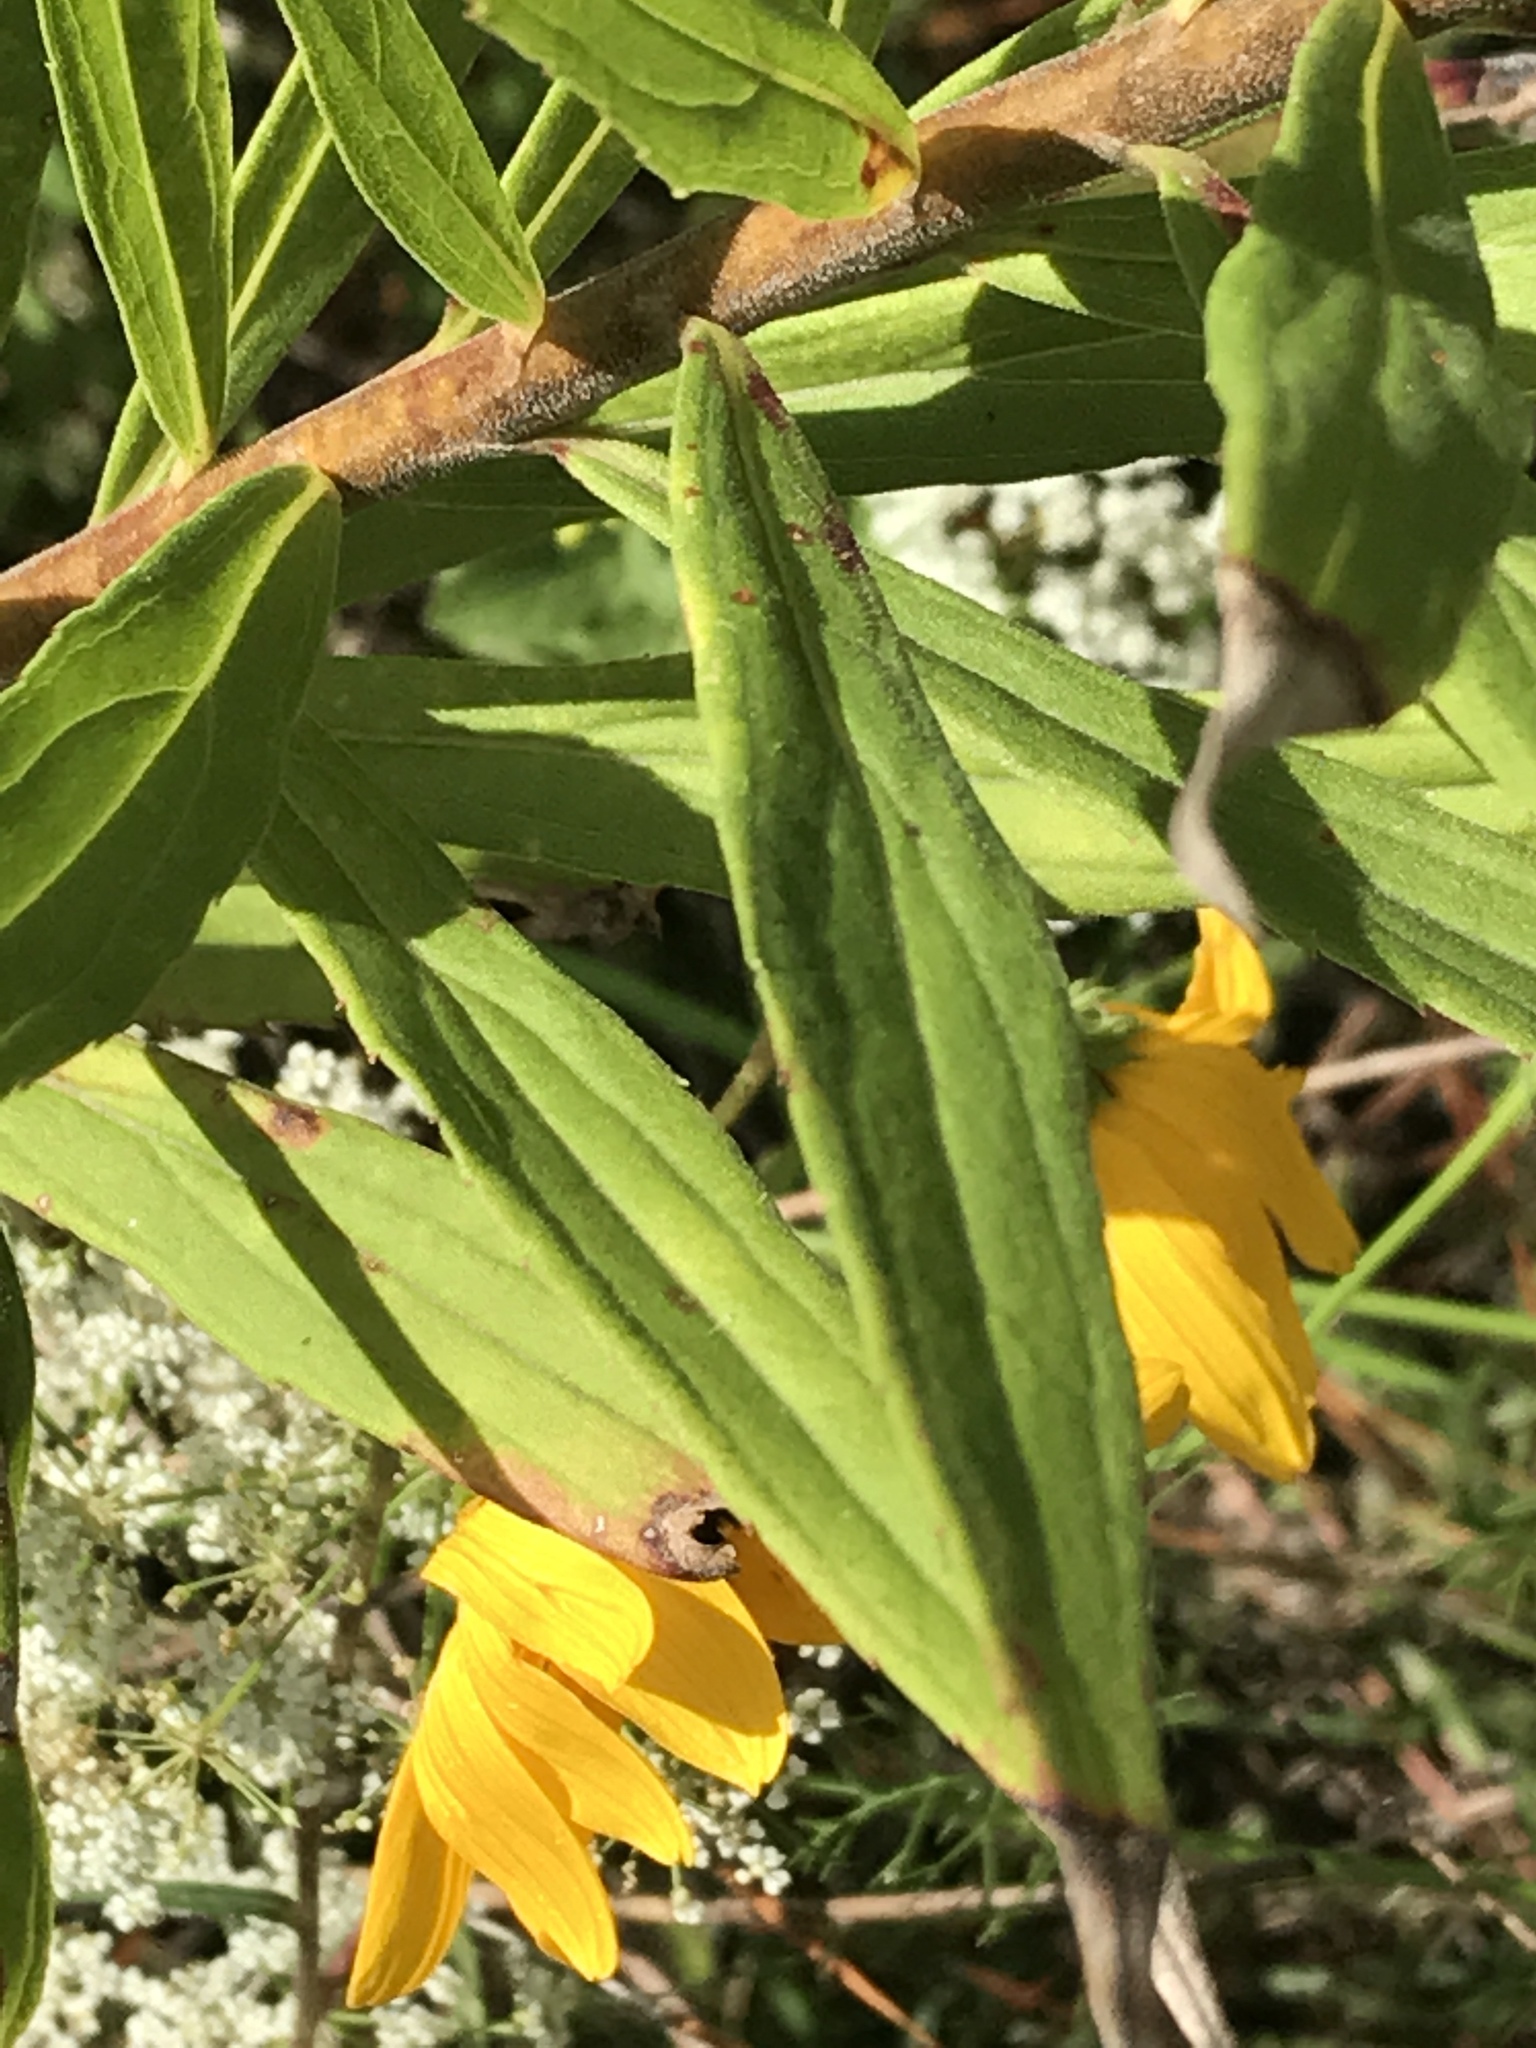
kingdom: Plantae
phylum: Tracheophyta
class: Magnoliopsida
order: Asterales
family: Asteraceae
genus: Solidago
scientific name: Solidago altissima
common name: Late goldenrod
